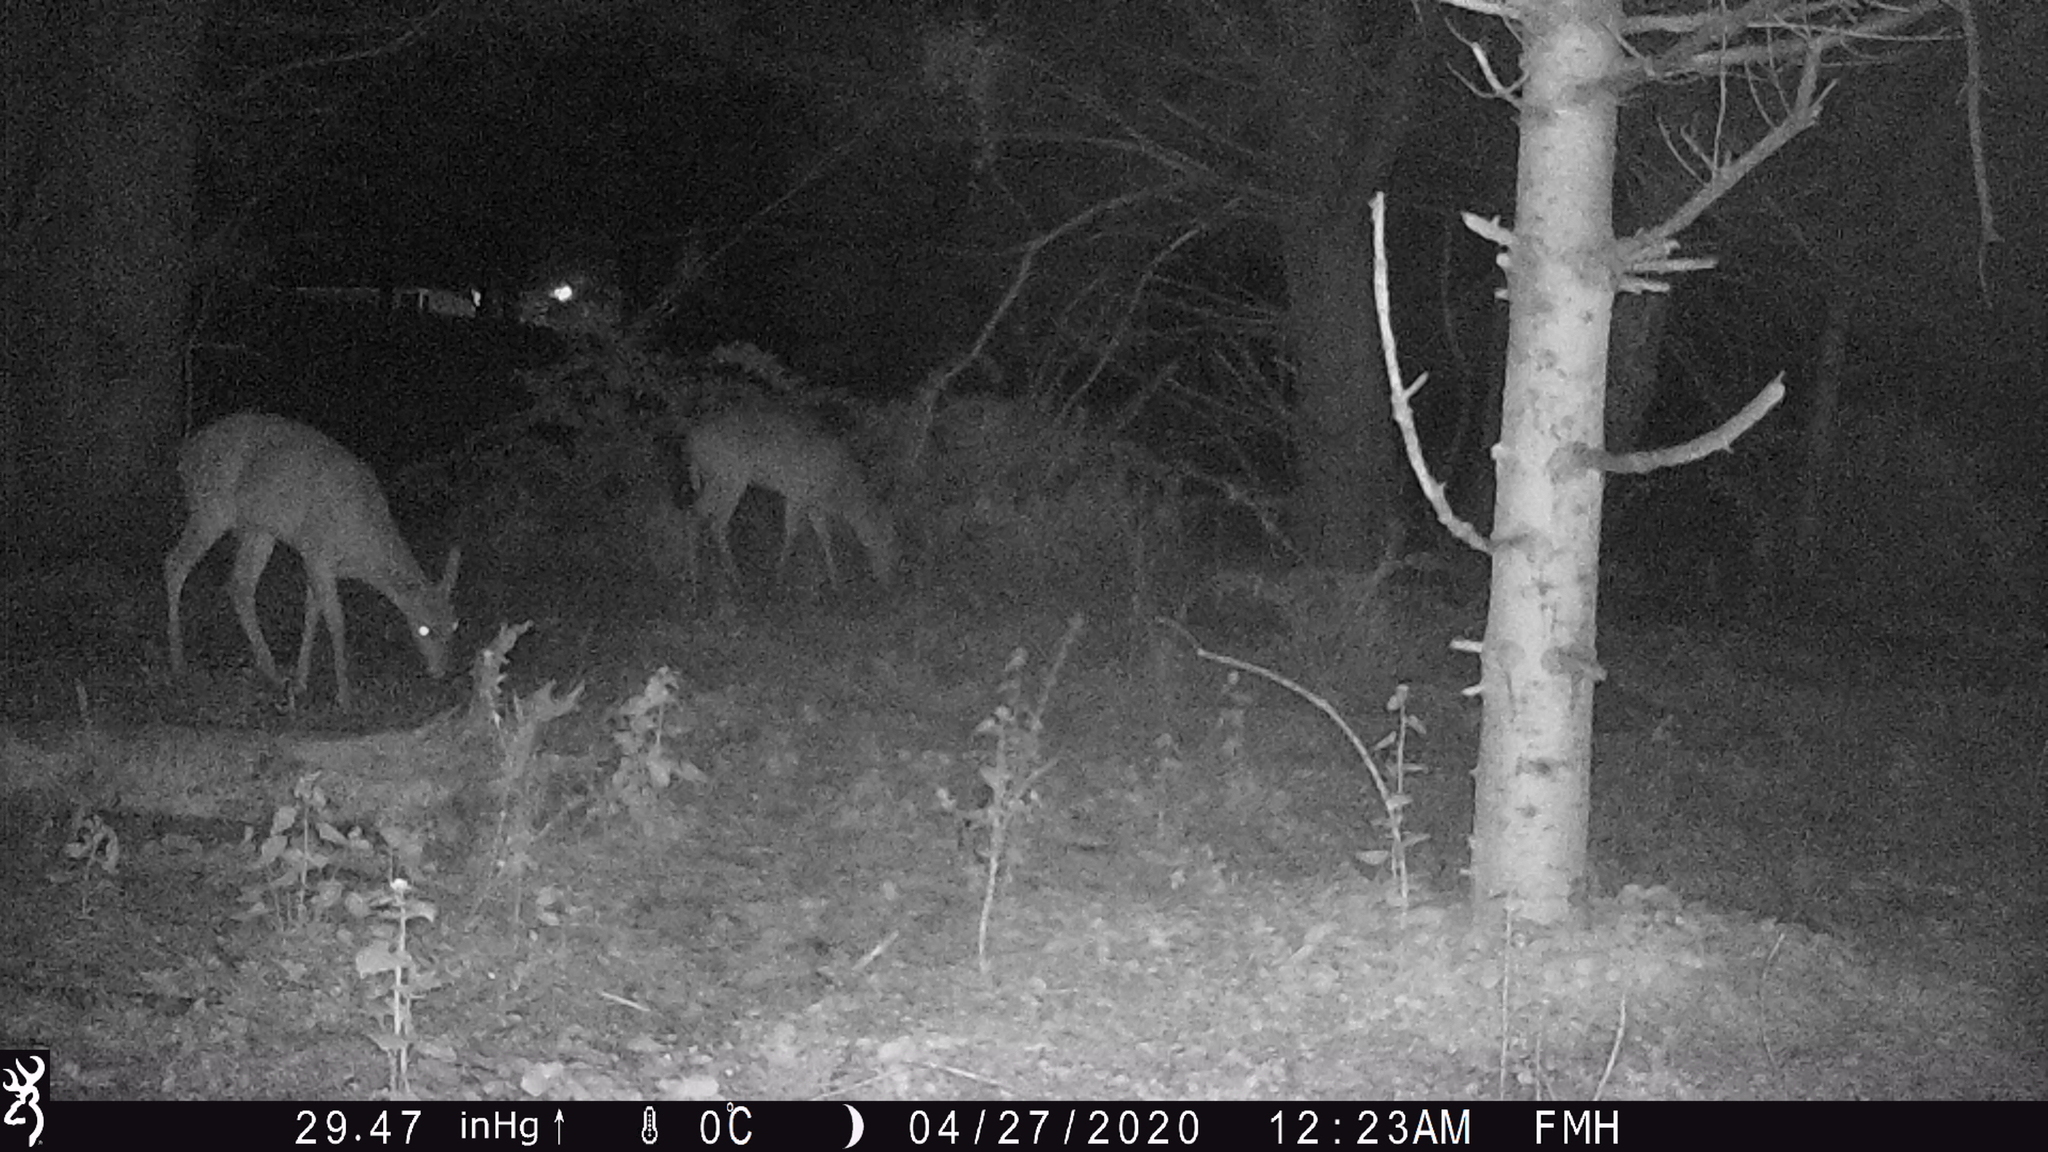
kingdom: Animalia
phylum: Chordata
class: Mammalia
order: Artiodactyla
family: Cervidae
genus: Odocoileus
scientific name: Odocoileus virginianus
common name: White-tailed deer
